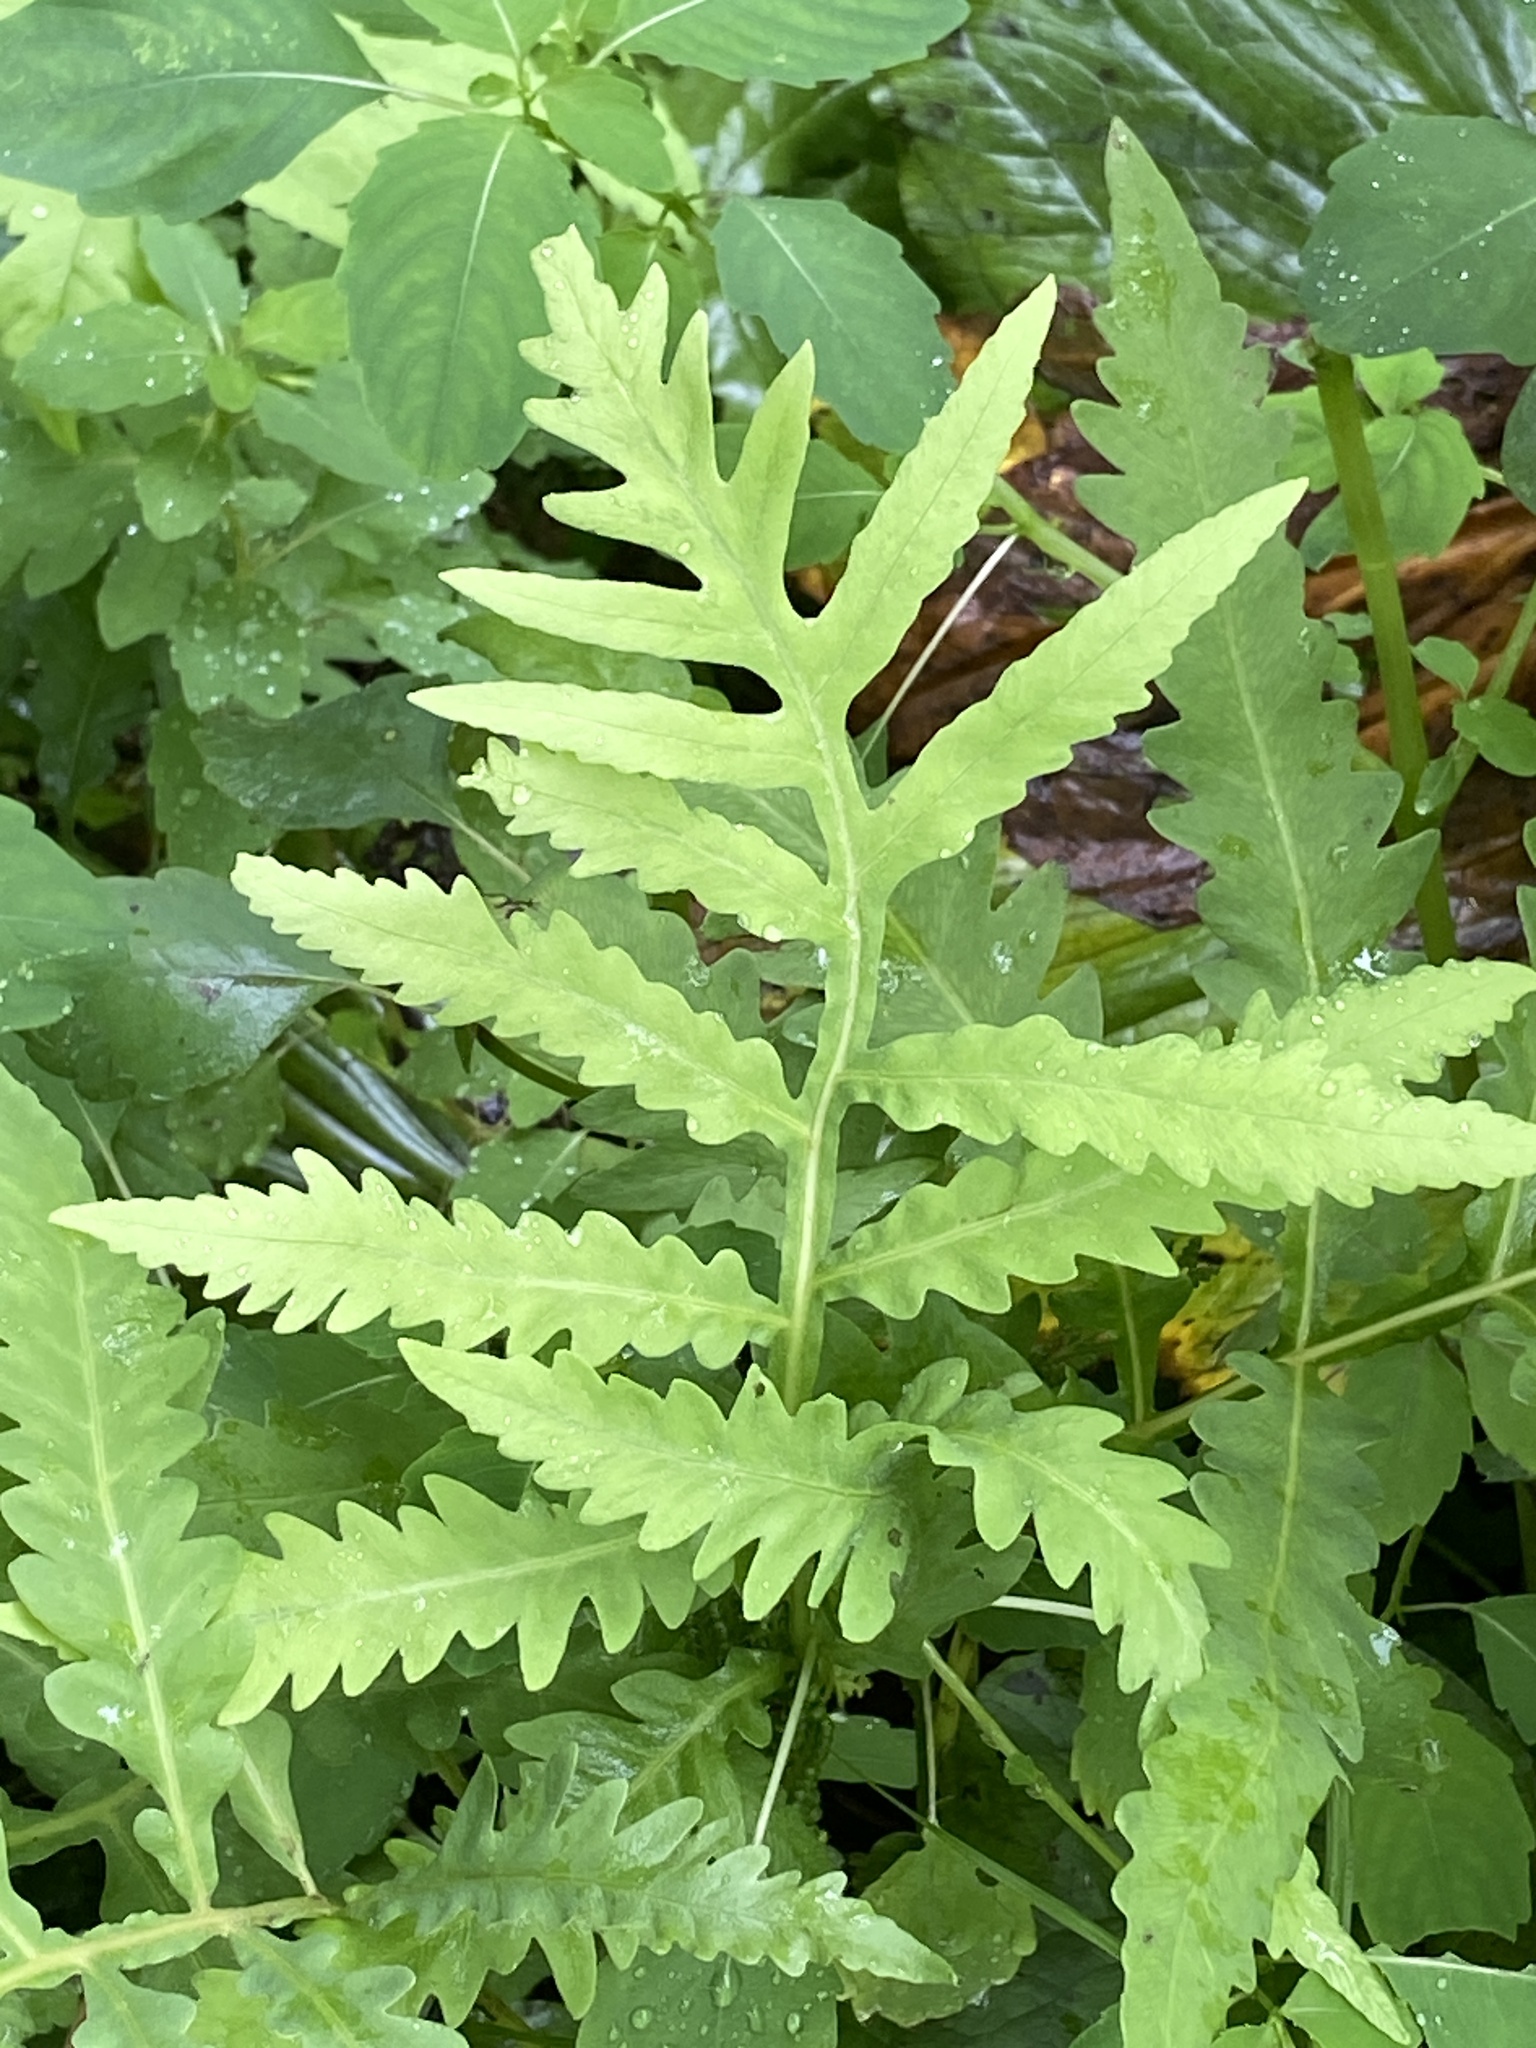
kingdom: Plantae
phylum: Tracheophyta
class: Polypodiopsida
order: Polypodiales
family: Onocleaceae
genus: Onoclea
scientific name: Onoclea sensibilis
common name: Sensitive fern
